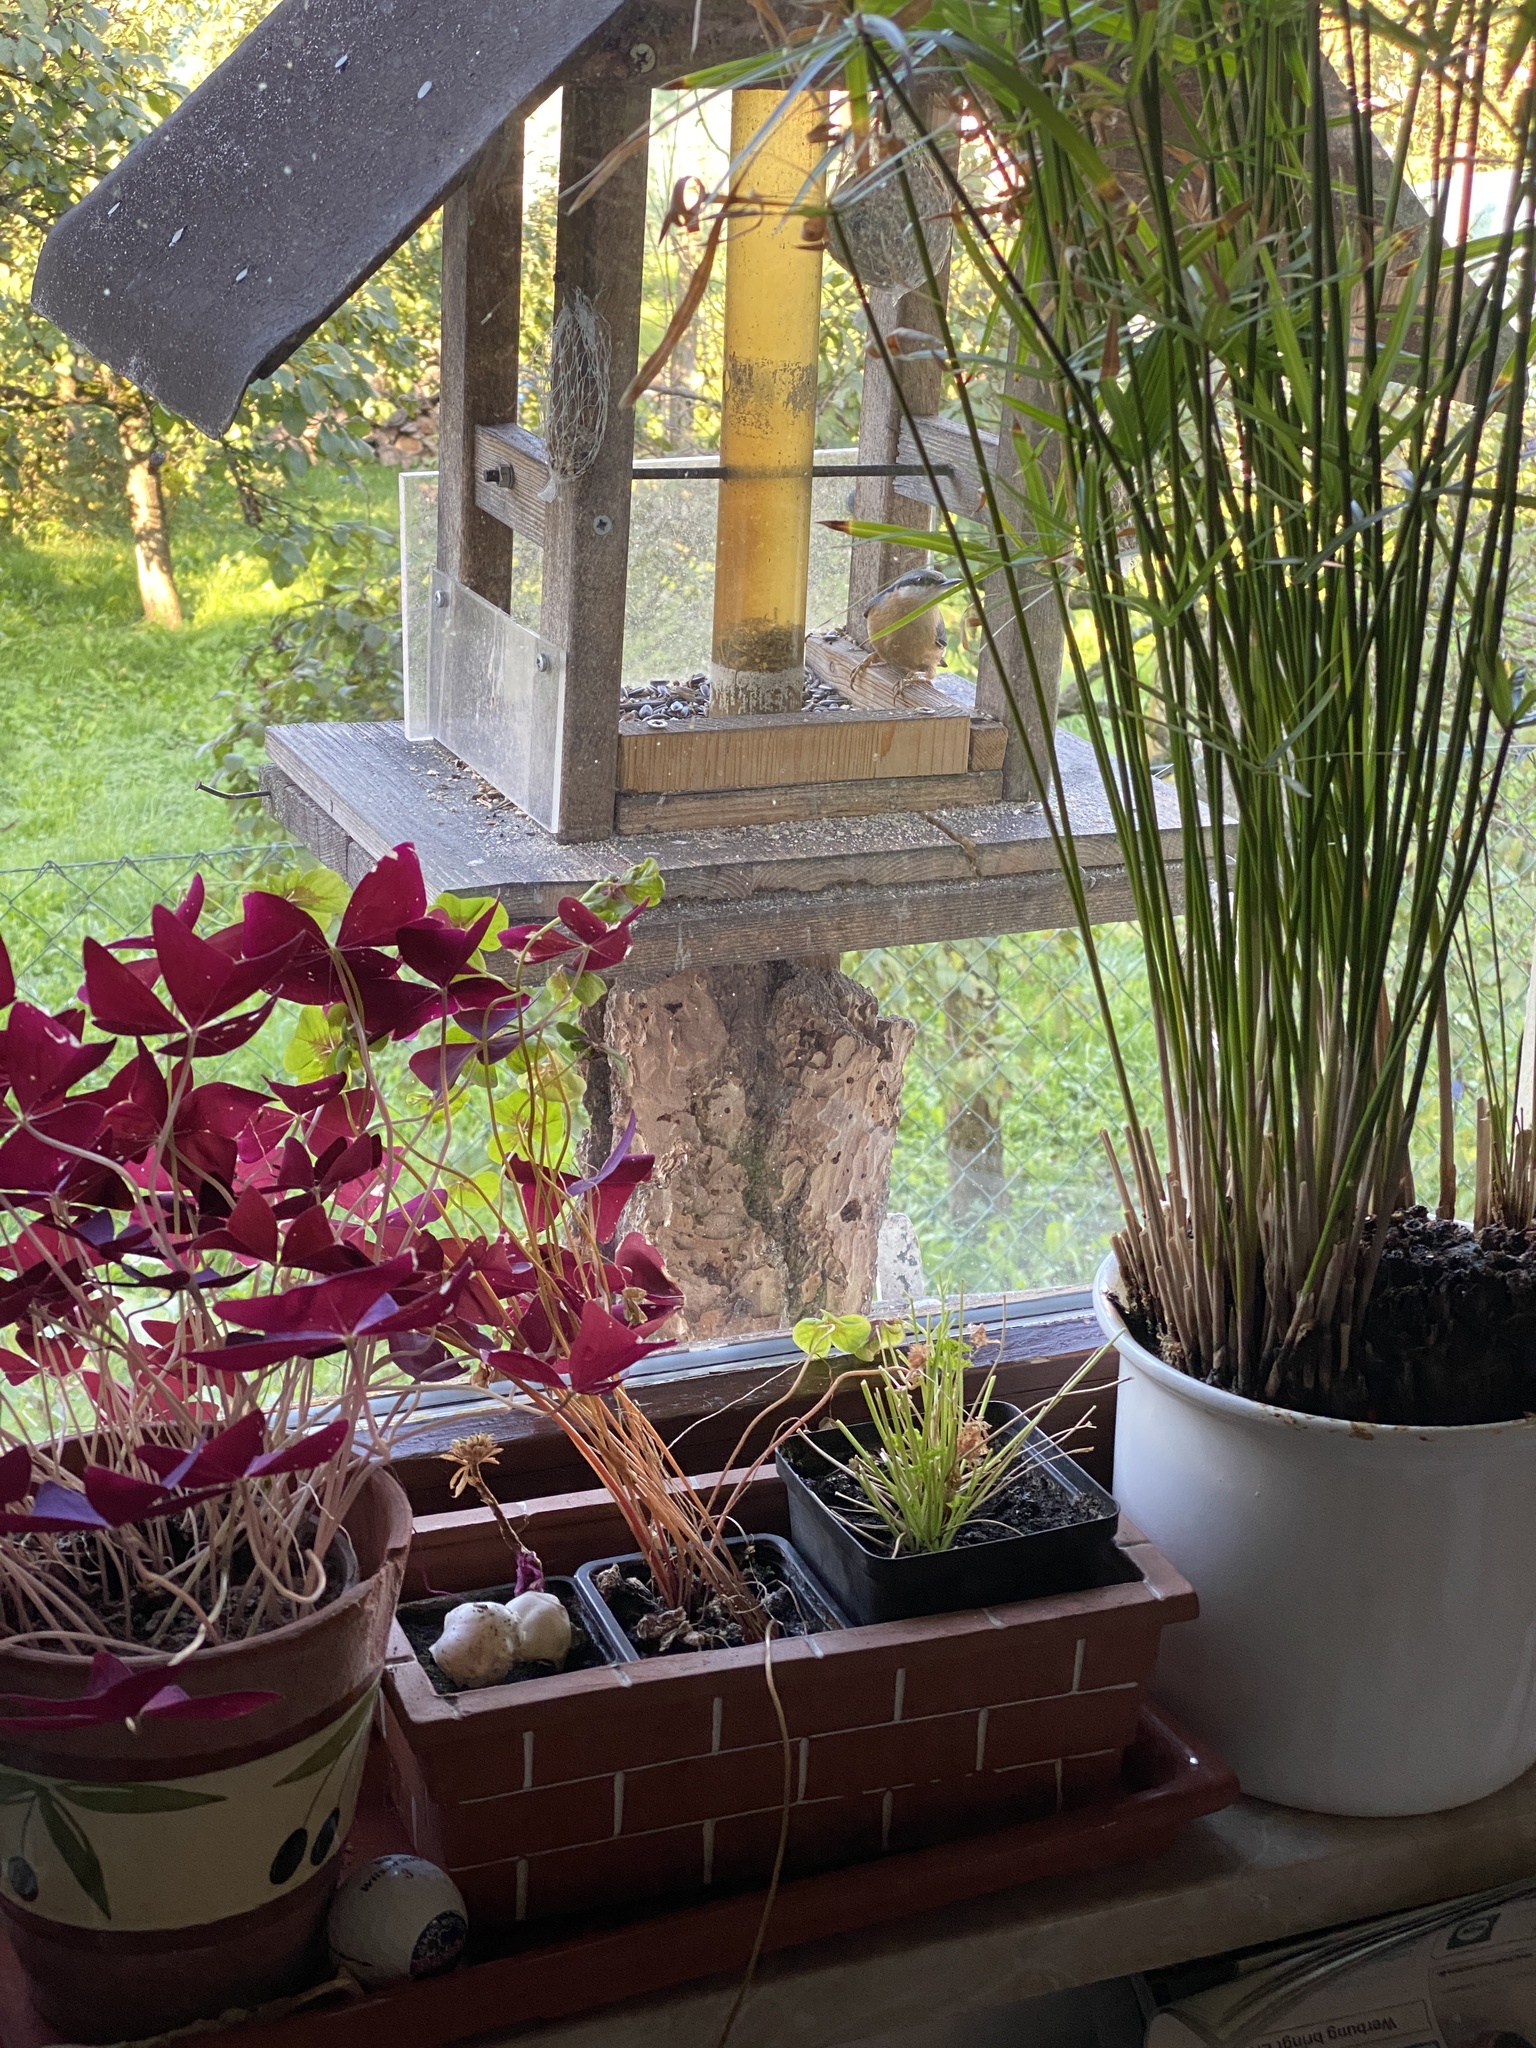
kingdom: Animalia
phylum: Chordata
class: Aves
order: Passeriformes
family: Sittidae
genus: Sitta
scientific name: Sitta europaea
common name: Eurasian nuthatch
